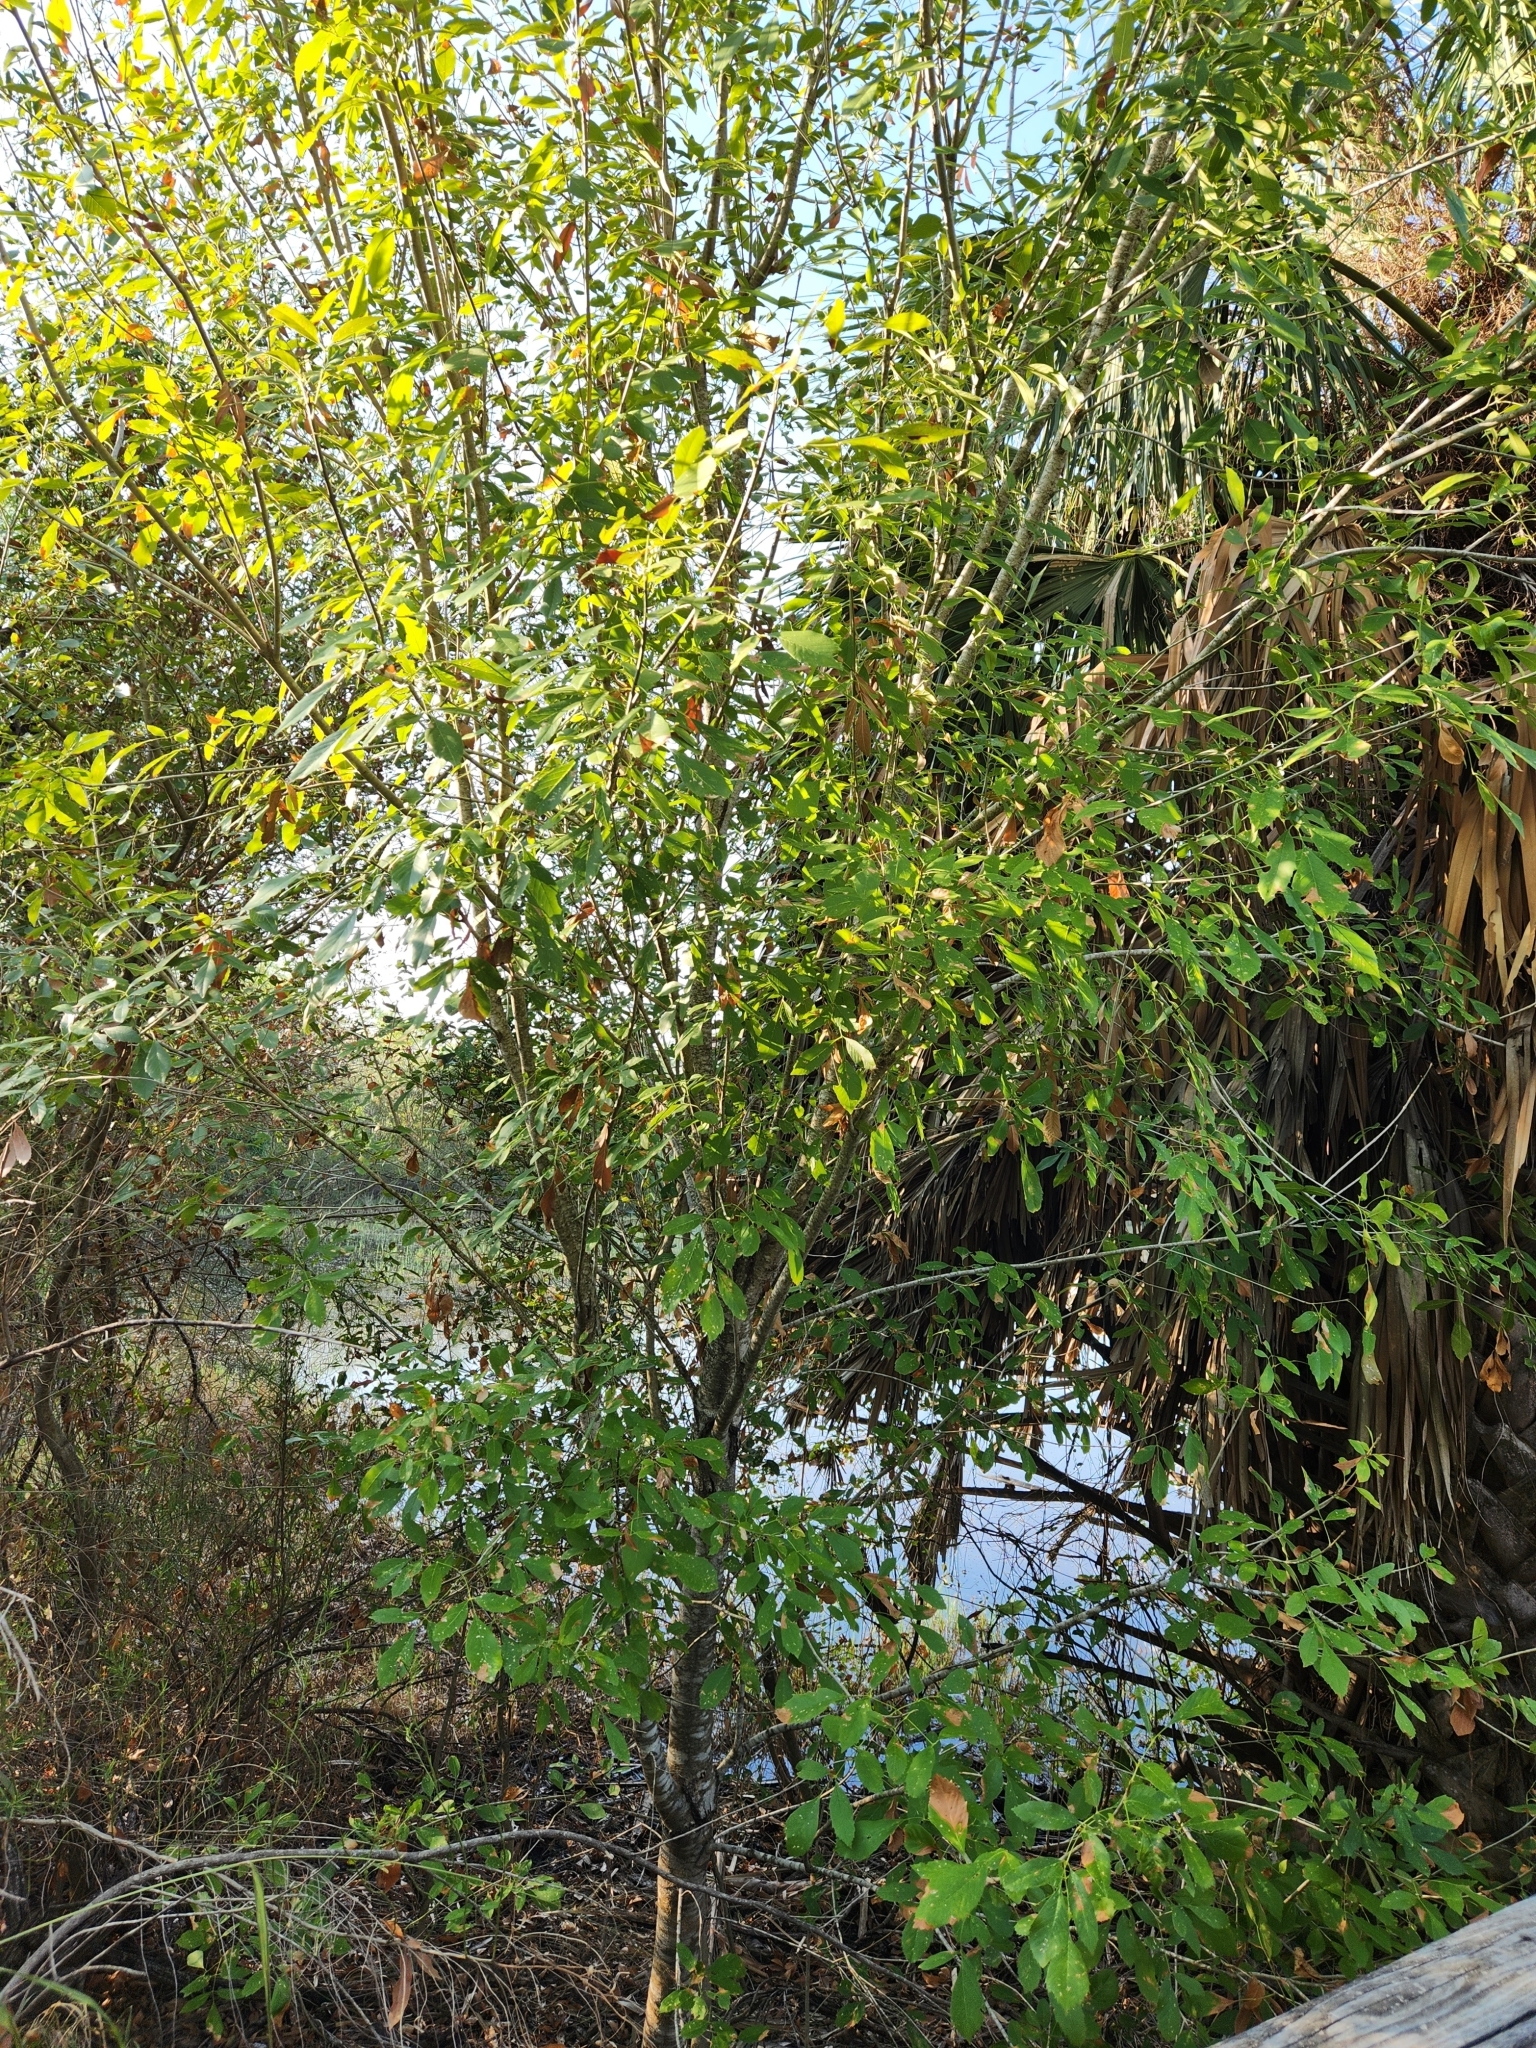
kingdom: Plantae
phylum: Tracheophyta
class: Magnoliopsida
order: Lamiales
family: Oleaceae
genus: Fraxinus
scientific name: Fraxinus berlandieriana
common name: Berlandier ash
